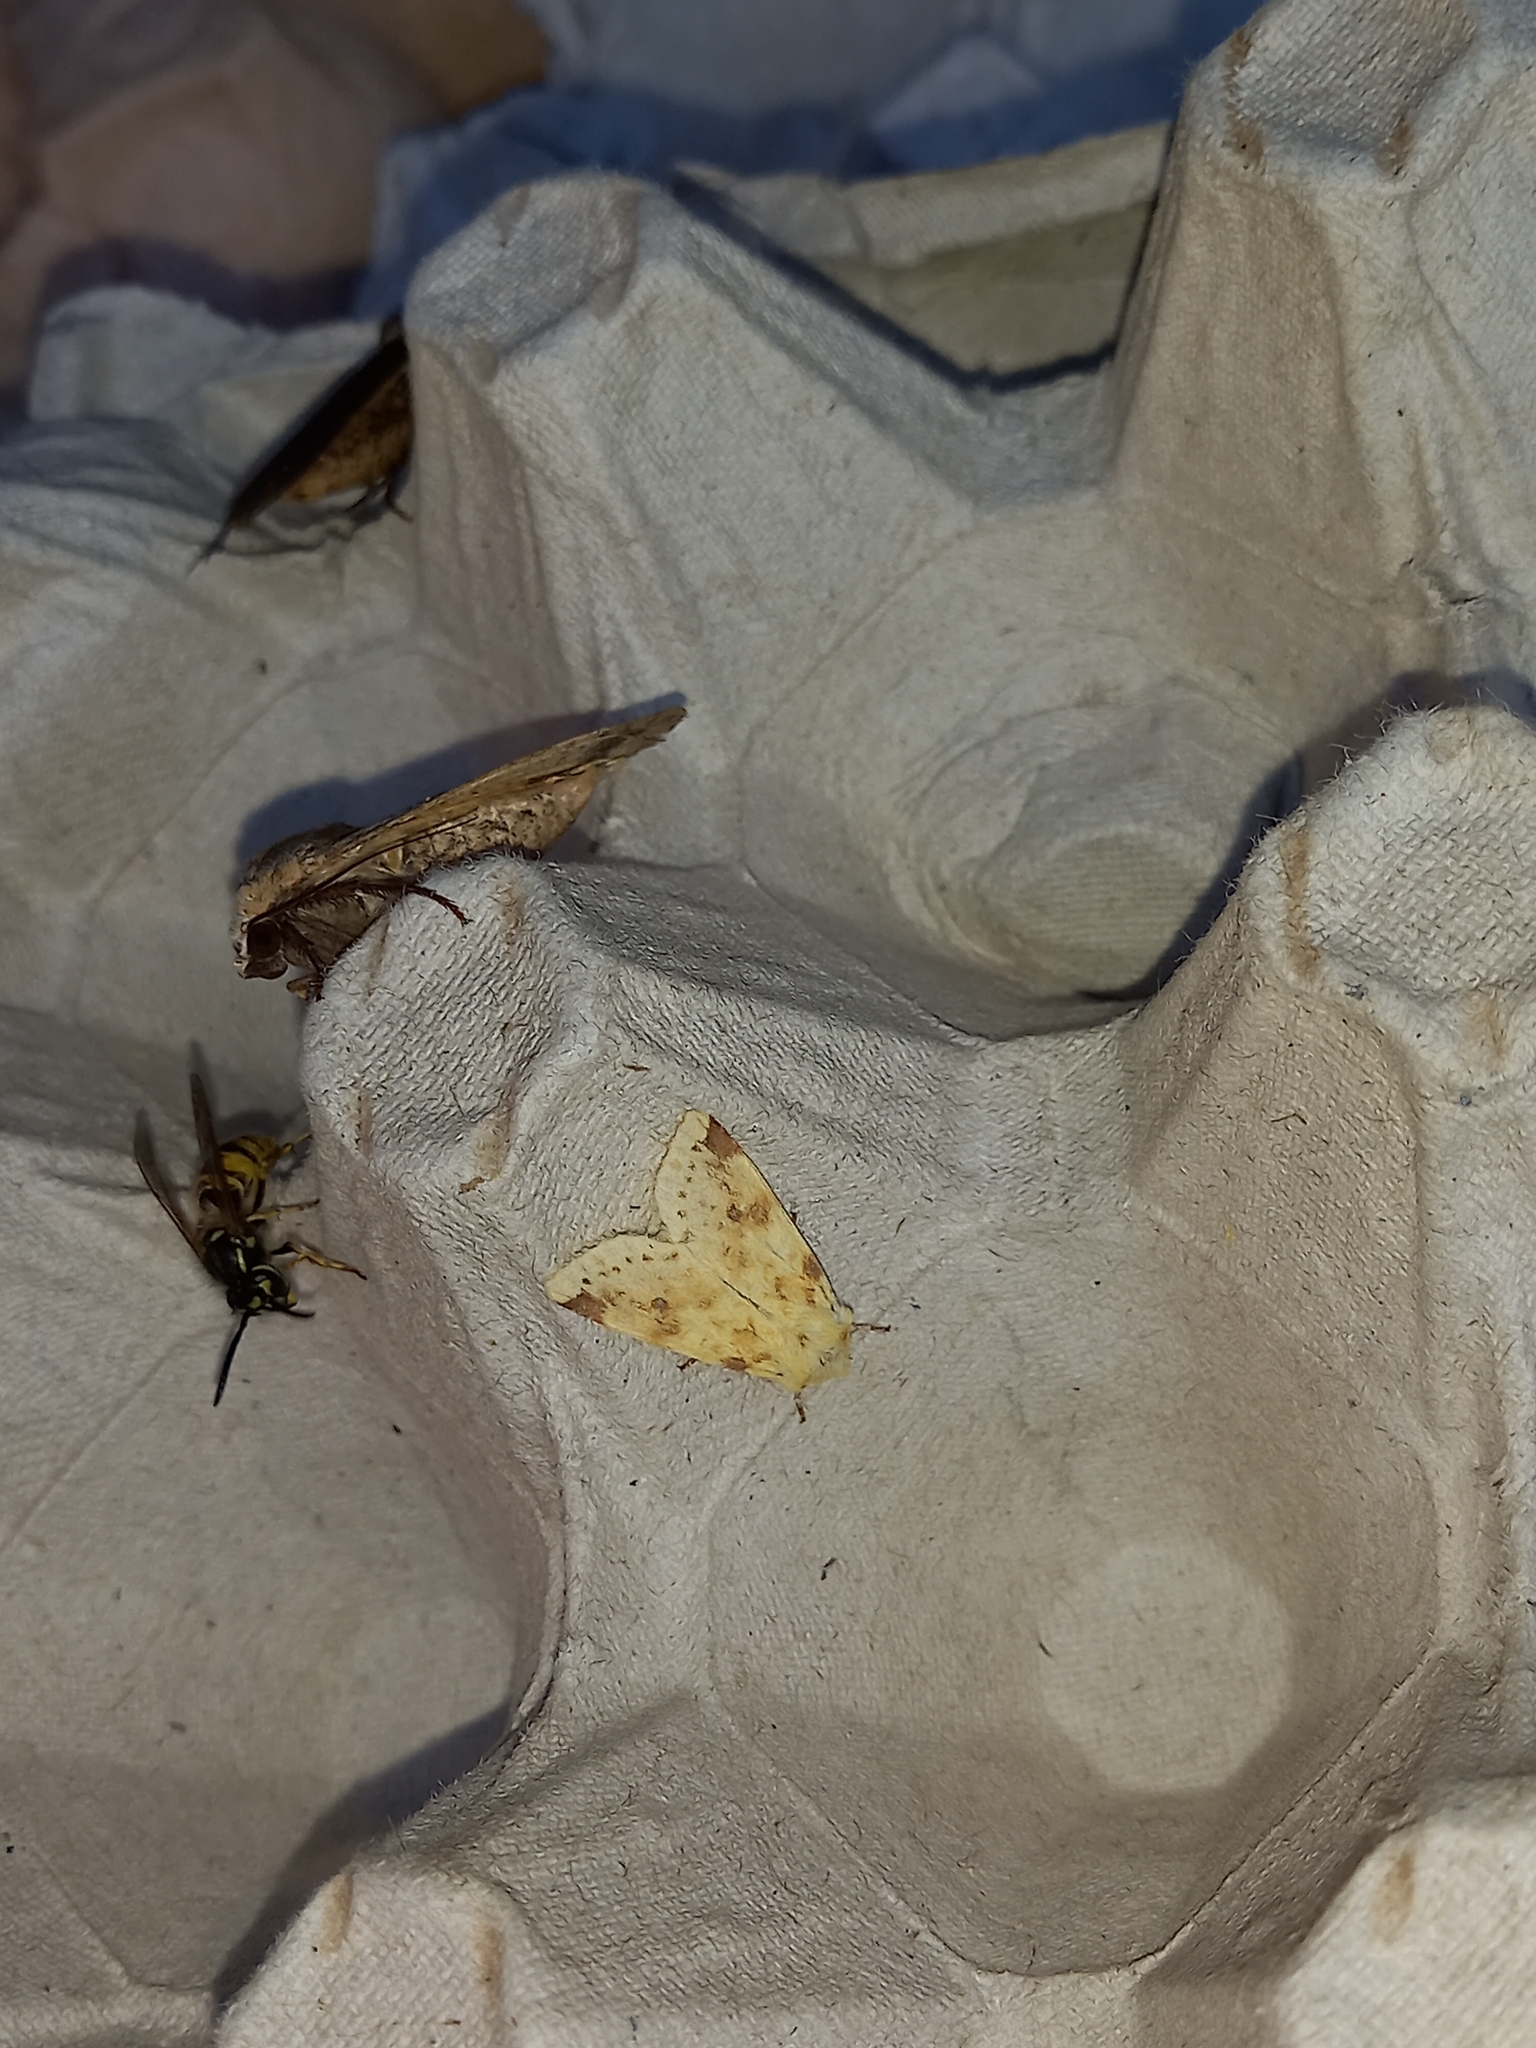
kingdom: Animalia
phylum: Arthropoda
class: Insecta
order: Lepidoptera
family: Noctuidae
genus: Xanthia
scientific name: Xanthia icteritia
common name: The sallow
